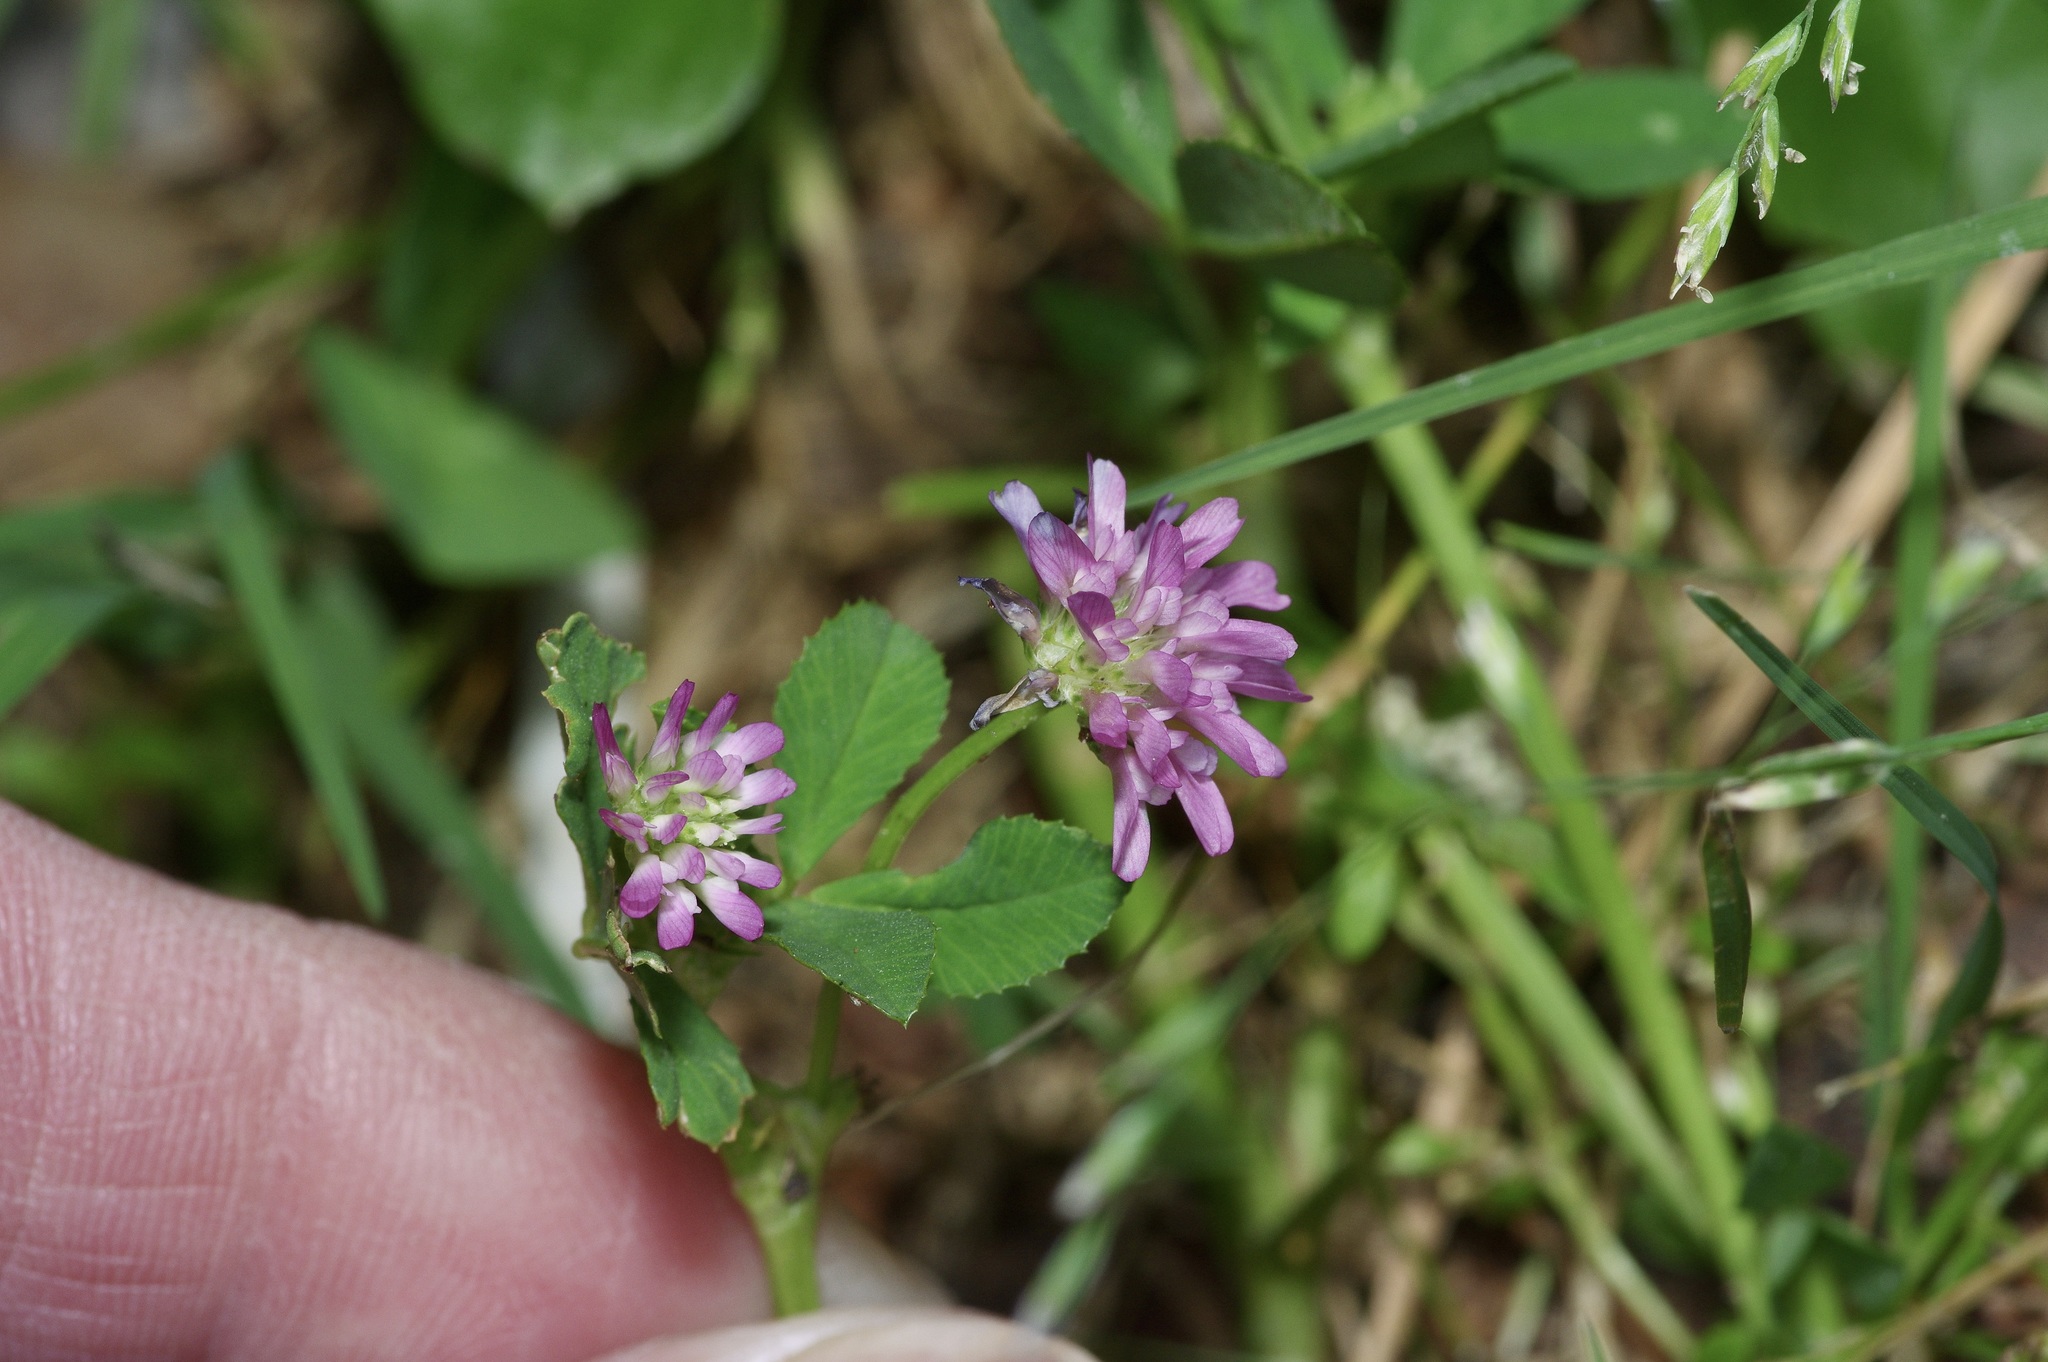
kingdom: Plantae
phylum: Tracheophyta
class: Magnoliopsida
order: Fabales
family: Fabaceae
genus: Trifolium
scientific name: Trifolium resupinatum
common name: Reversed clover
